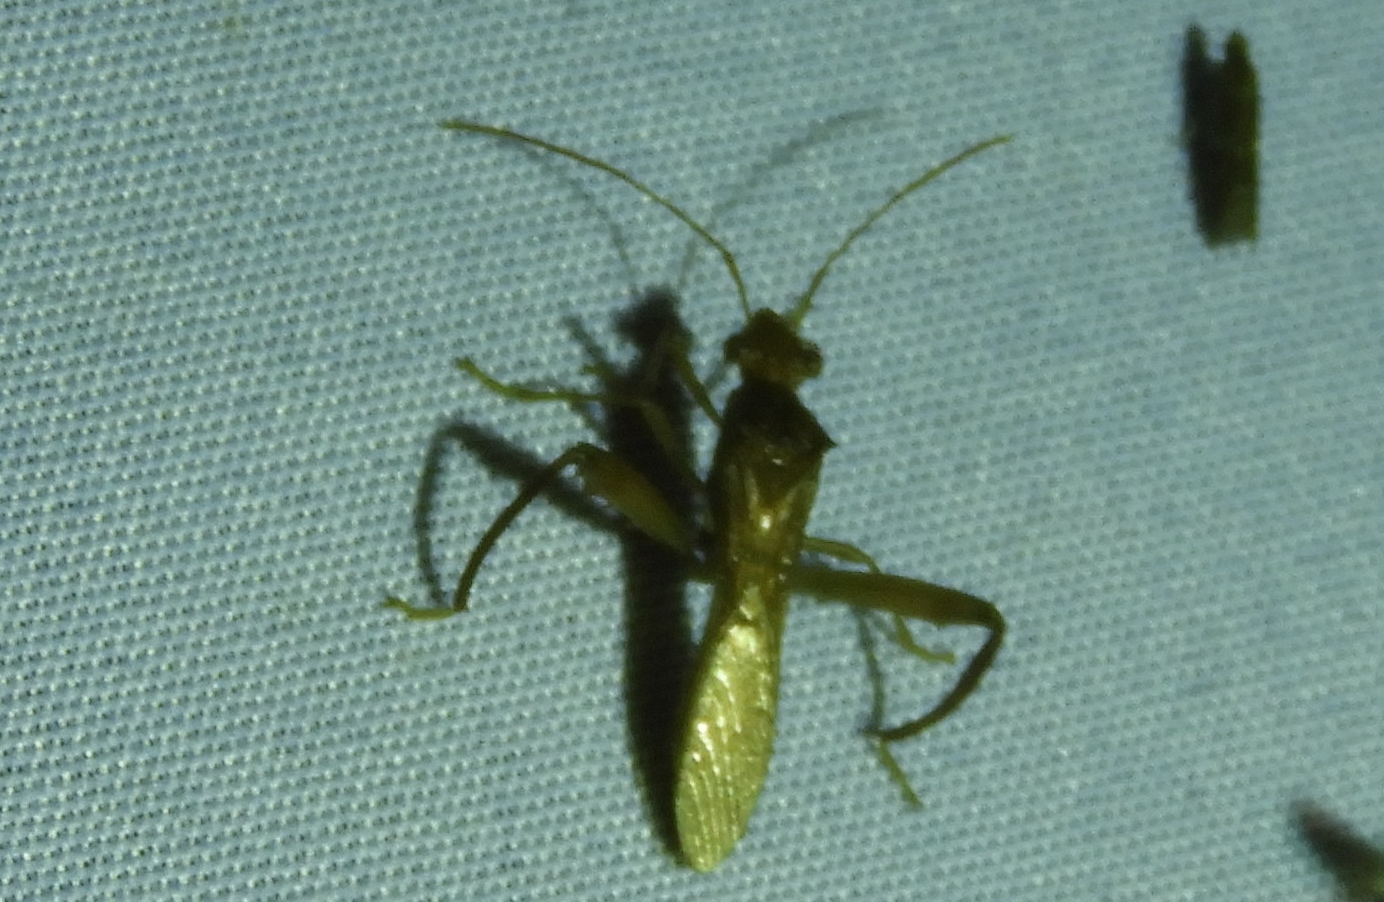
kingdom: Animalia
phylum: Arthropoda
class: Insecta
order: Hemiptera
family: Alydidae
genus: Hyalymenus
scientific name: Hyalymenus
